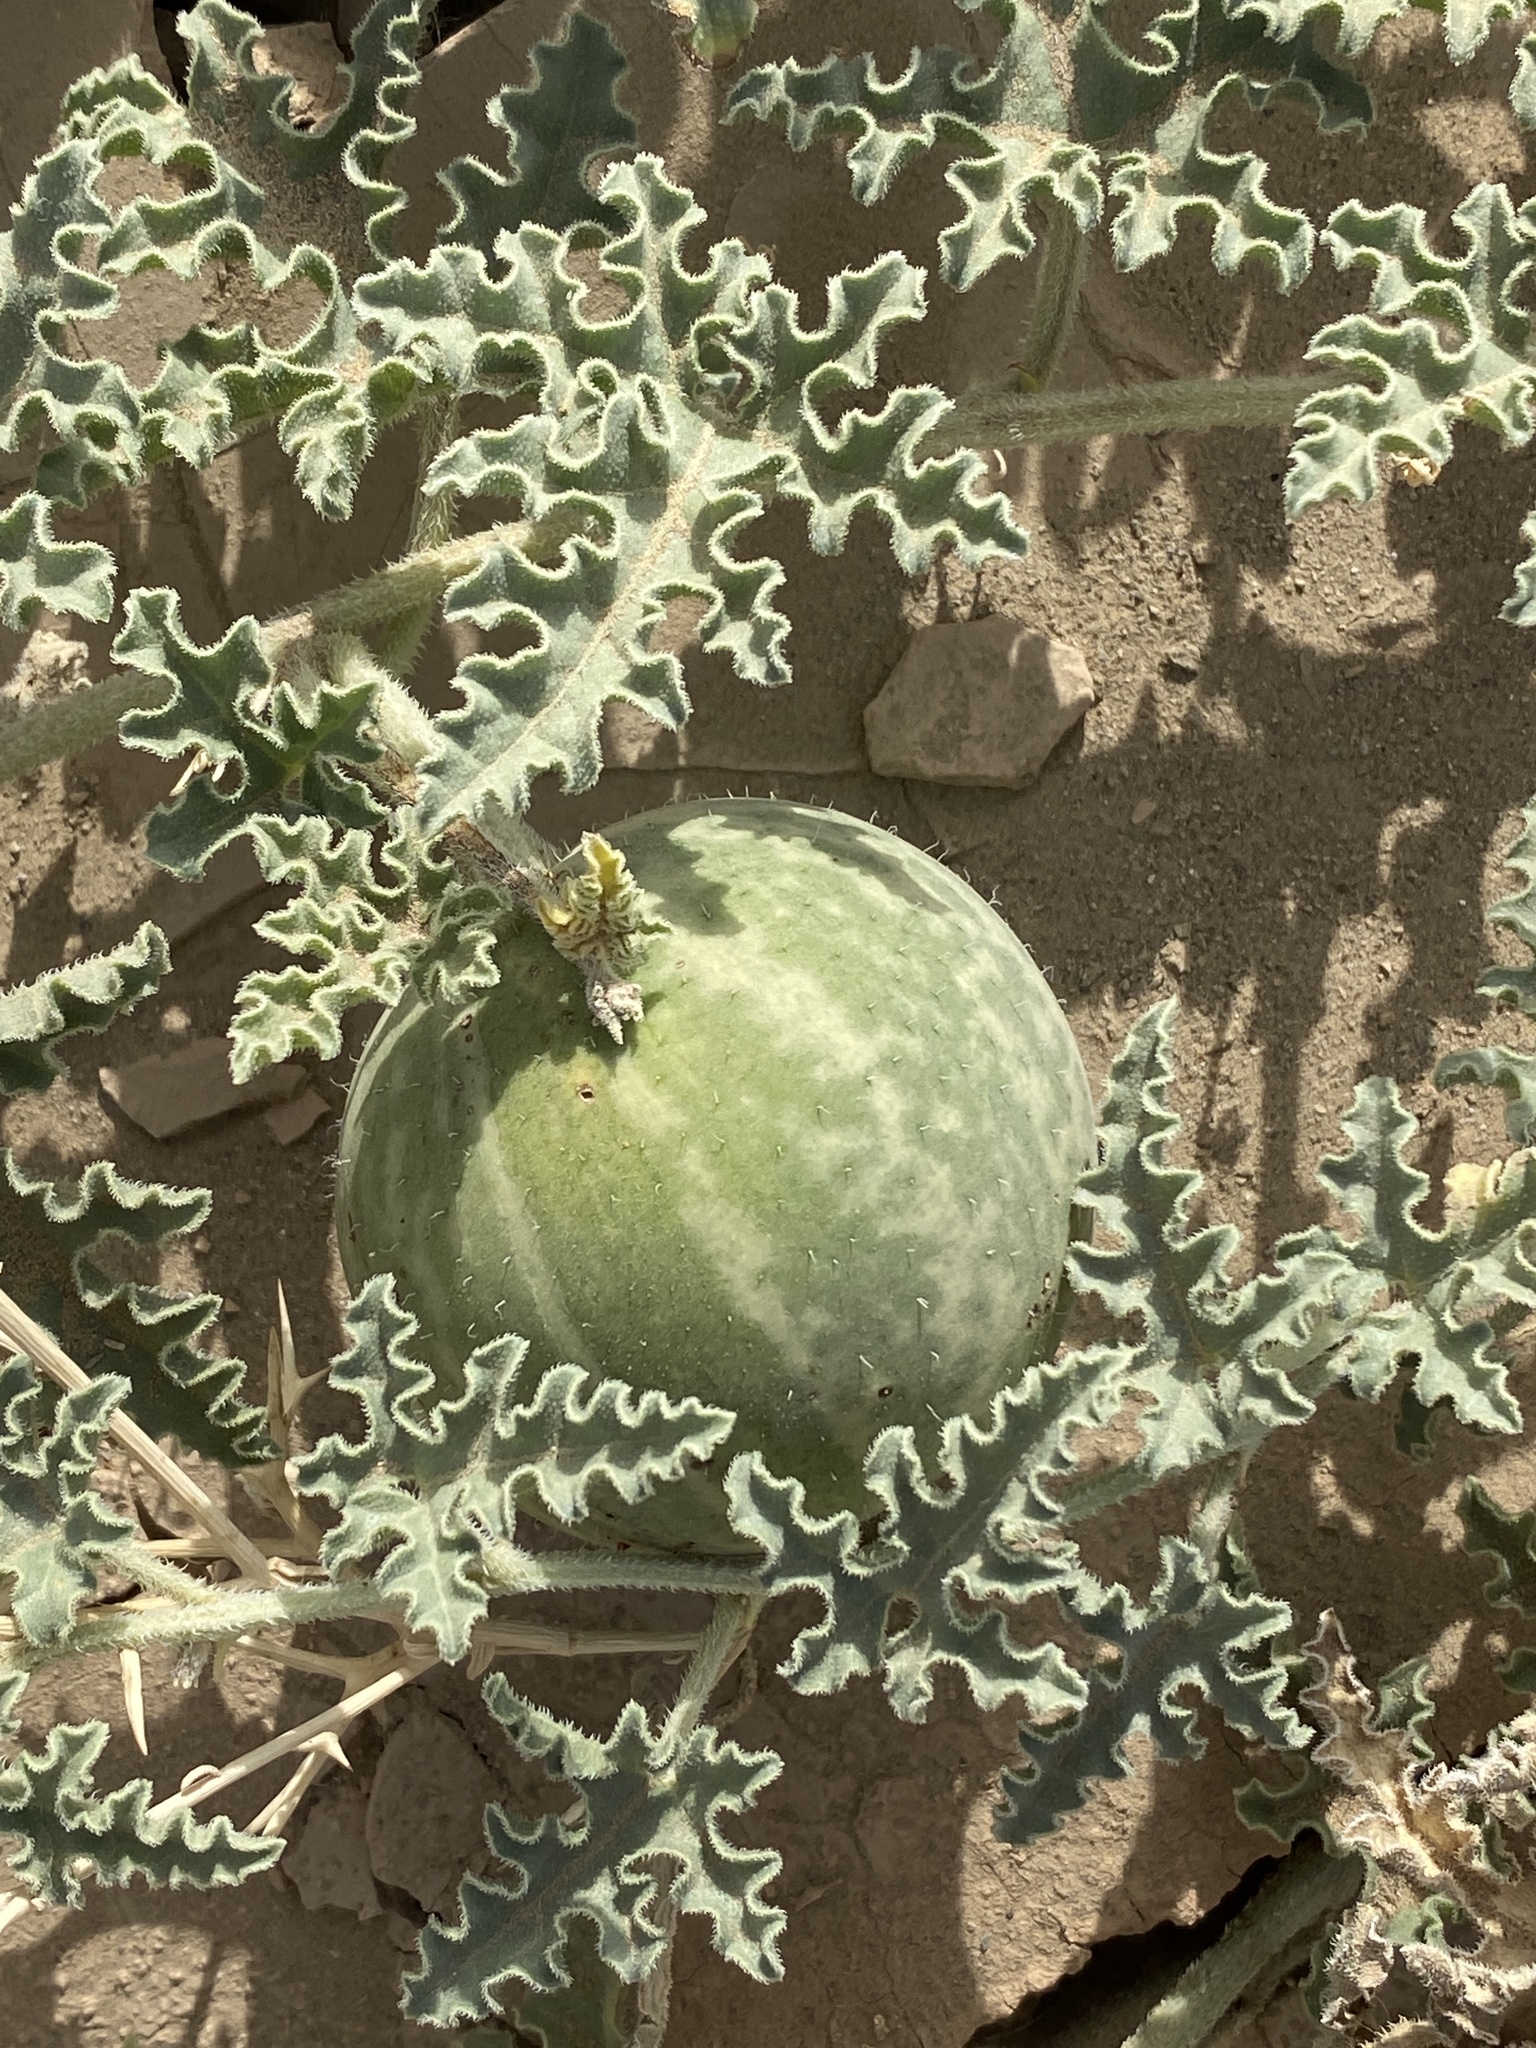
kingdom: Plantae
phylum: Tracheophyta
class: Magnoliopsida
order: Cucurbitales
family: Cucurbitaceae
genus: Citrullus
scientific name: Citrullus colocynthis
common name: Colocynth
